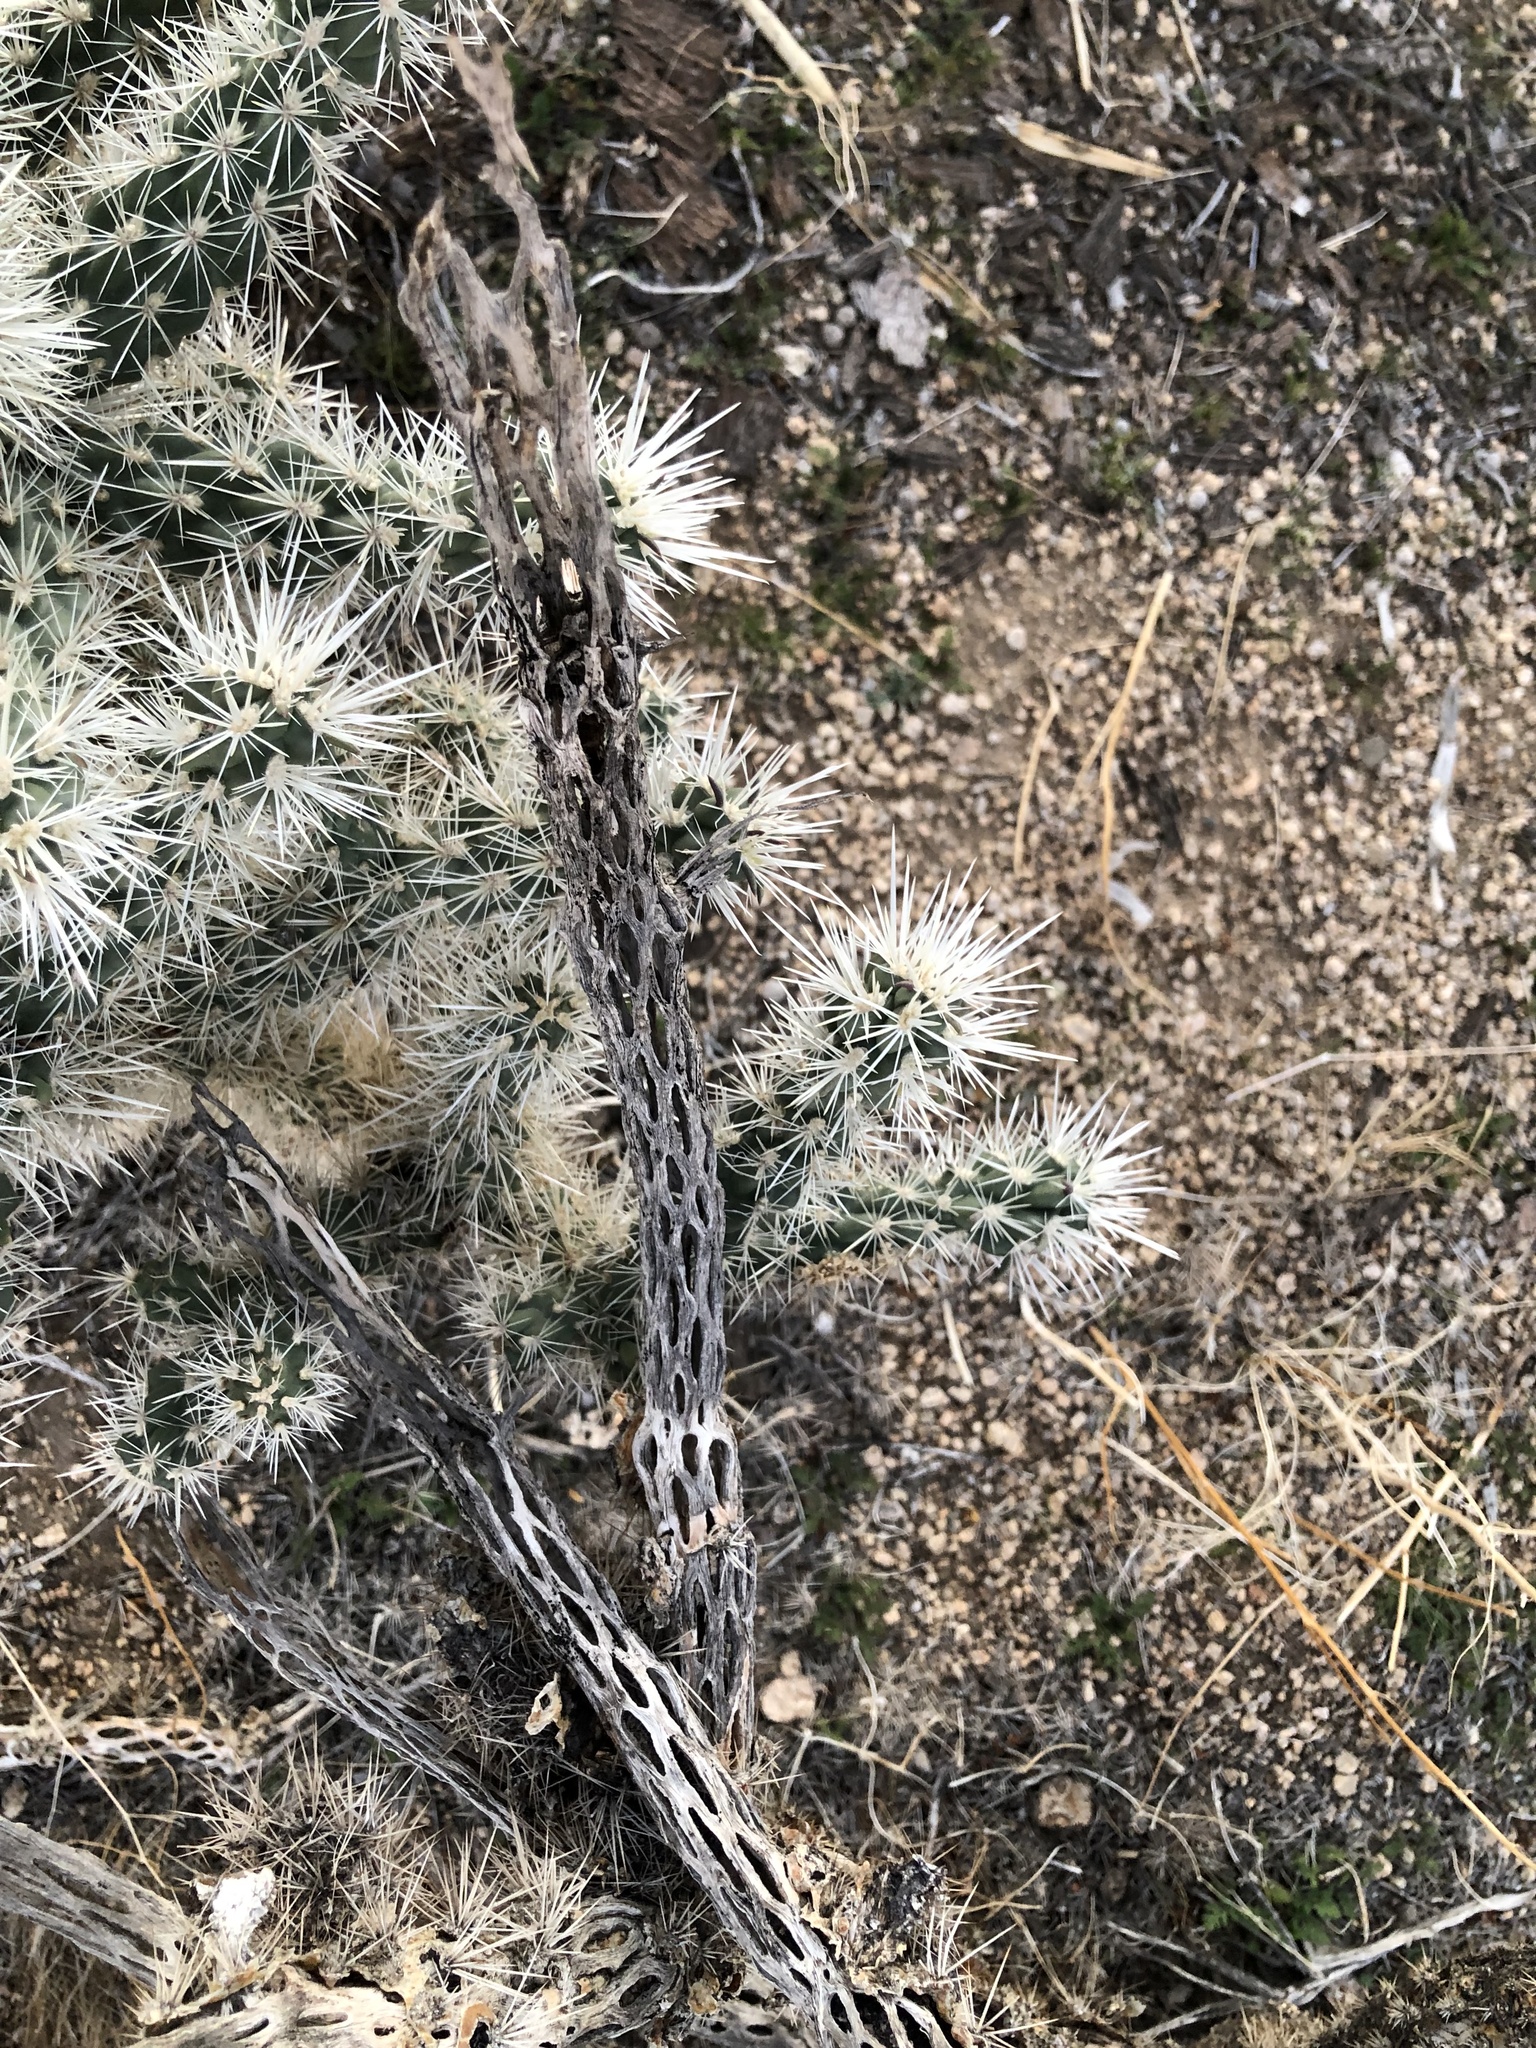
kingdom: Plantae
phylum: Tracheophyta
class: Magnoliopsida
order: Caryophyllales
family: Cactaceae
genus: Cylindropuntia
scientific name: Cylindropuntia echinocarpa
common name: Ground cholla
